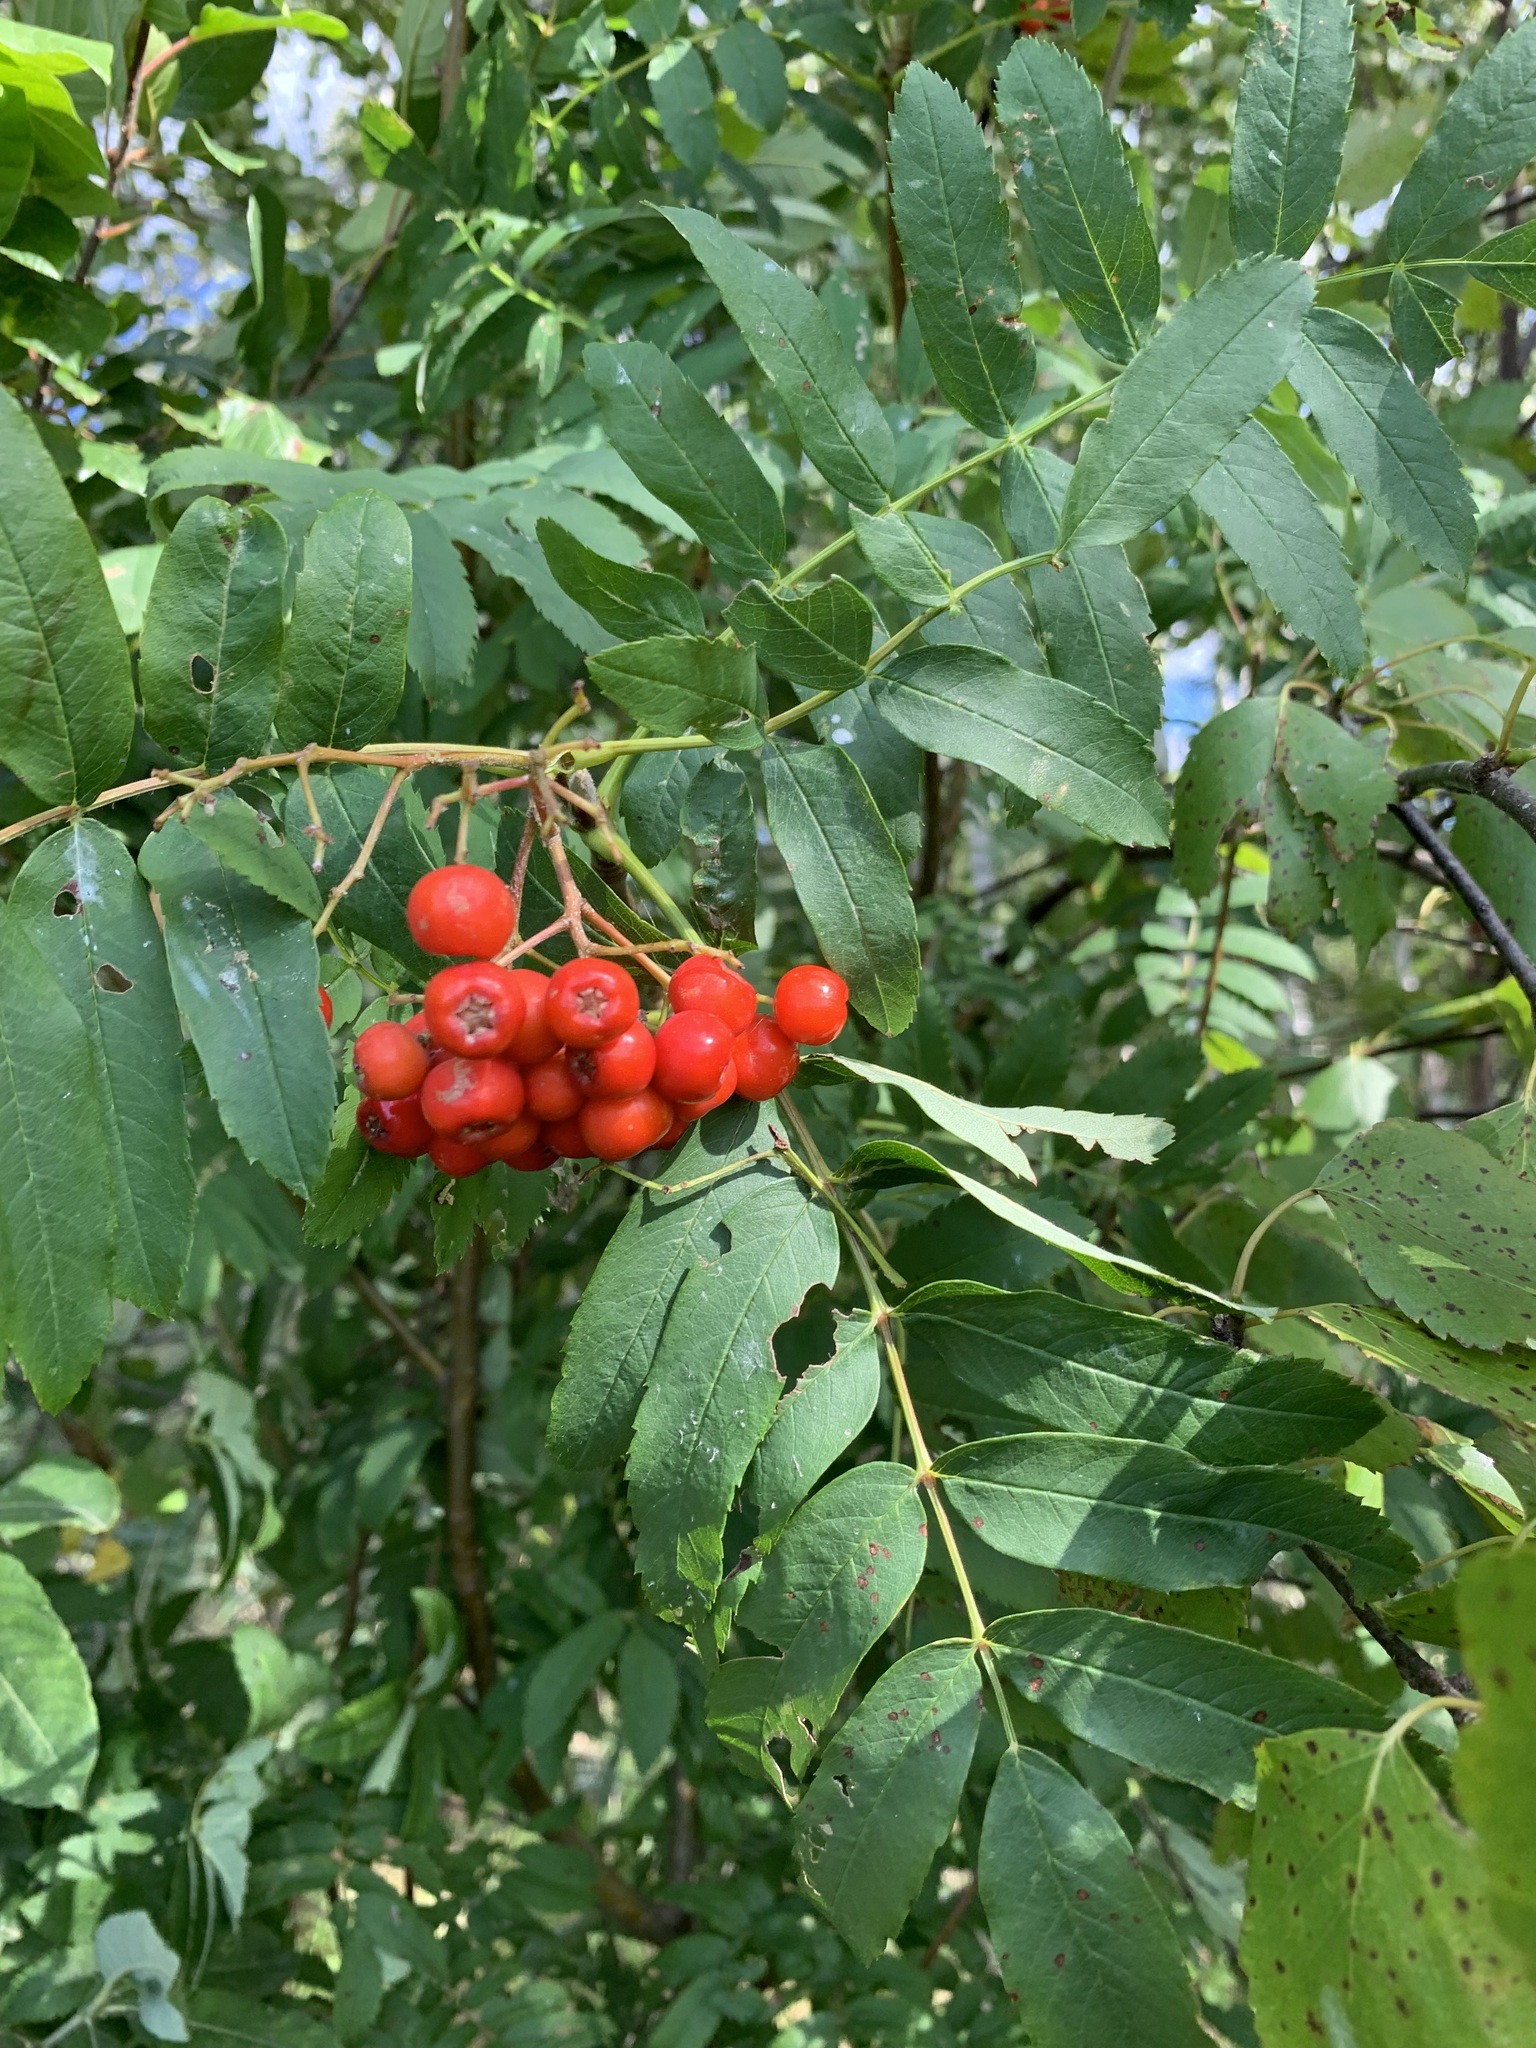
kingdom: Plantae
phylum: Tracheophyta
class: Magnoliopsida
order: Rosales
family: Rosaceae
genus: Sorbus
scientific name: Sorbus aucuparia
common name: Rowan
